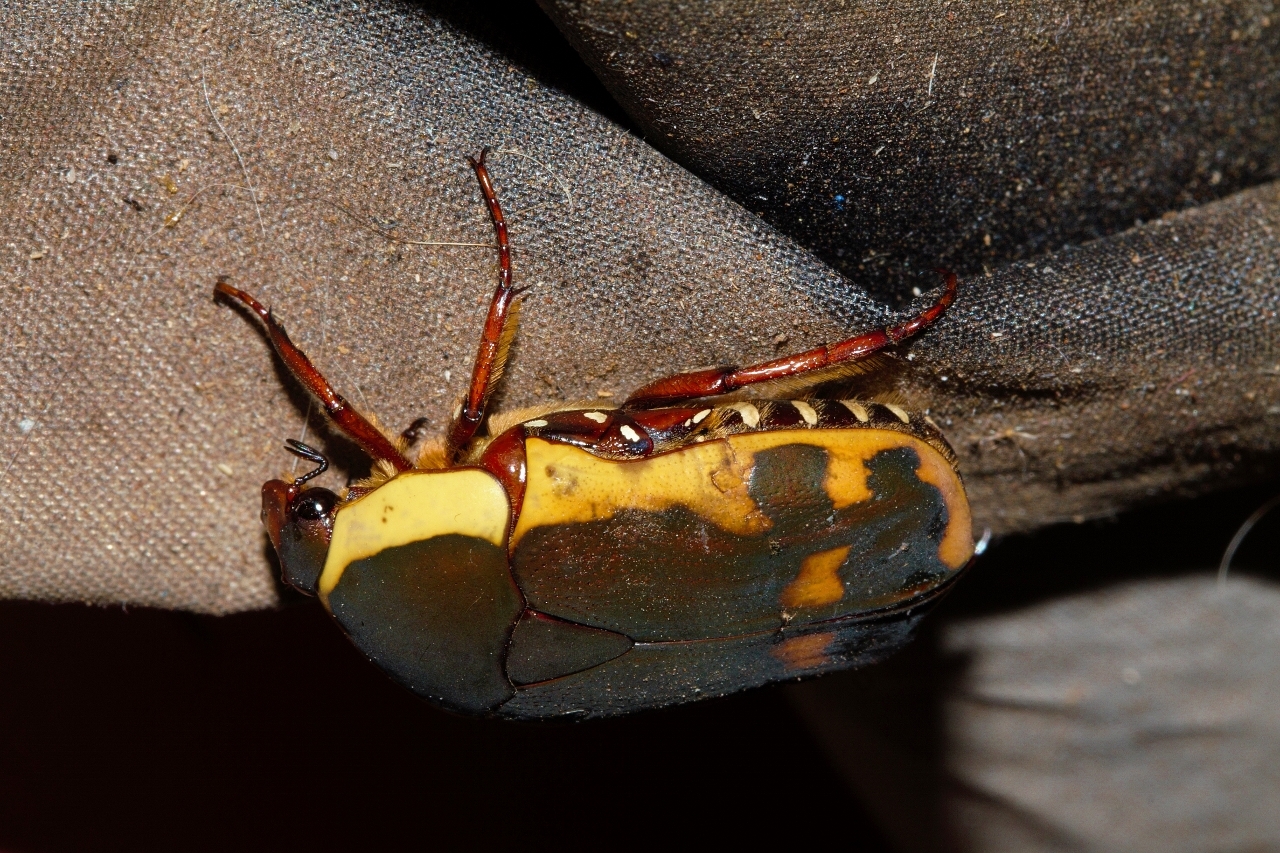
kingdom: Animalia
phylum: Arthropoda
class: Insecta
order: Coleoptera
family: Scarabaeidae
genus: Marmylida
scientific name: Marmylida impressa
